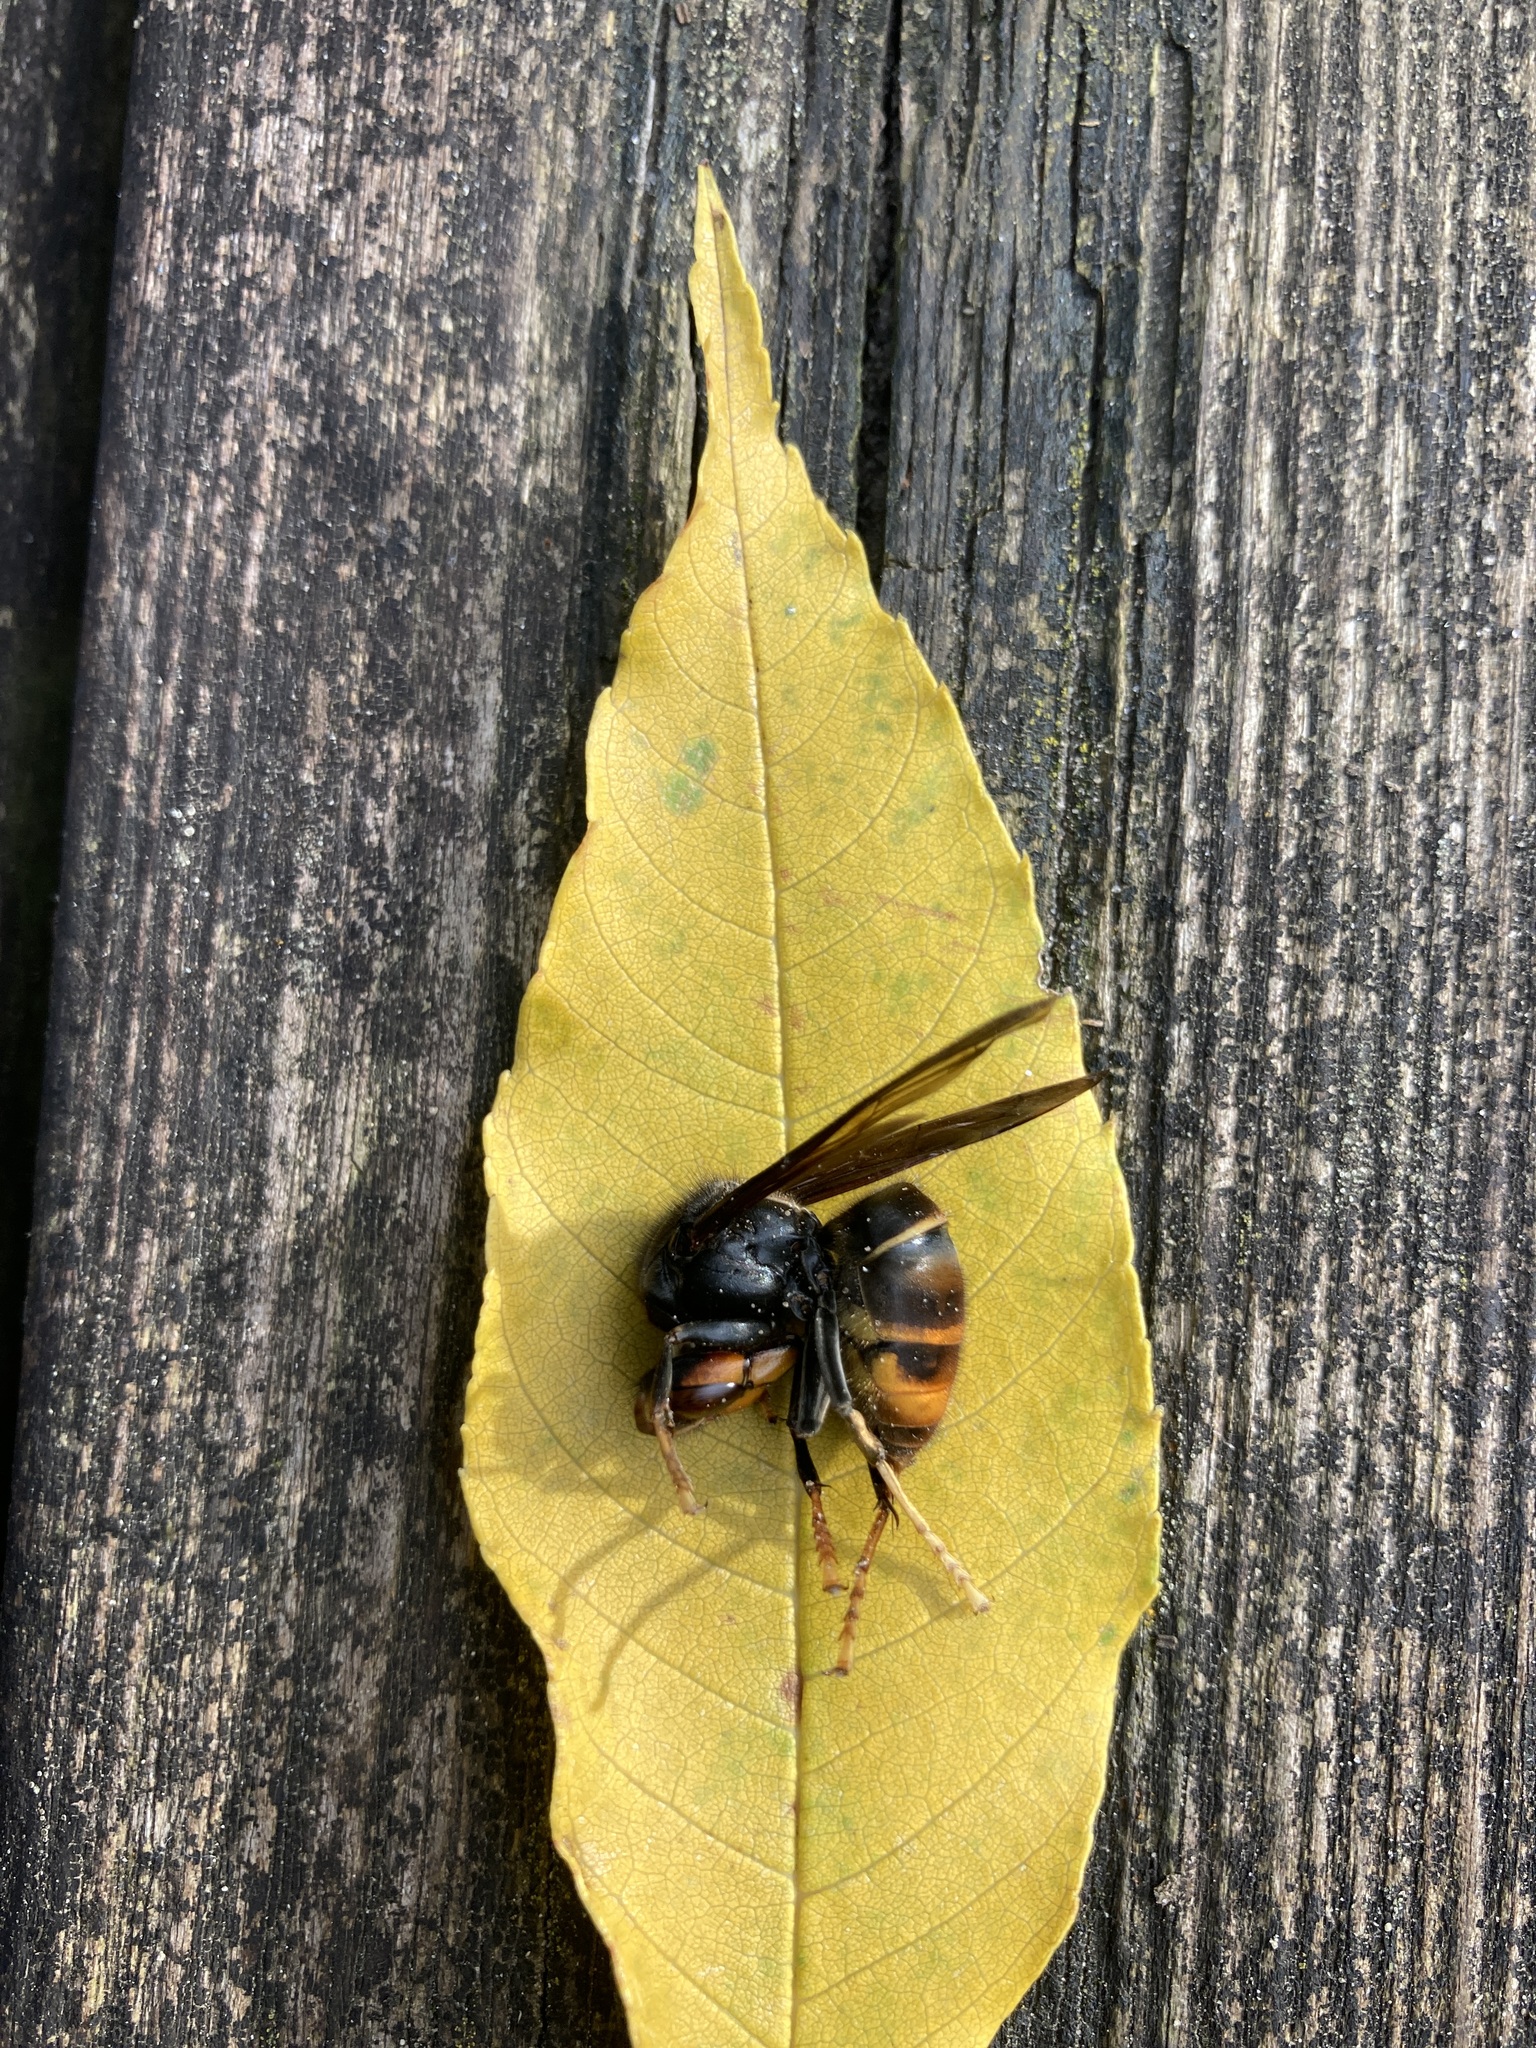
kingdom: Animalia
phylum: Arthropoda
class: Insecta
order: Hymenoptera
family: Vespidae
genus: Vespa
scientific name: Vespa velutina
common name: Asian hornet
